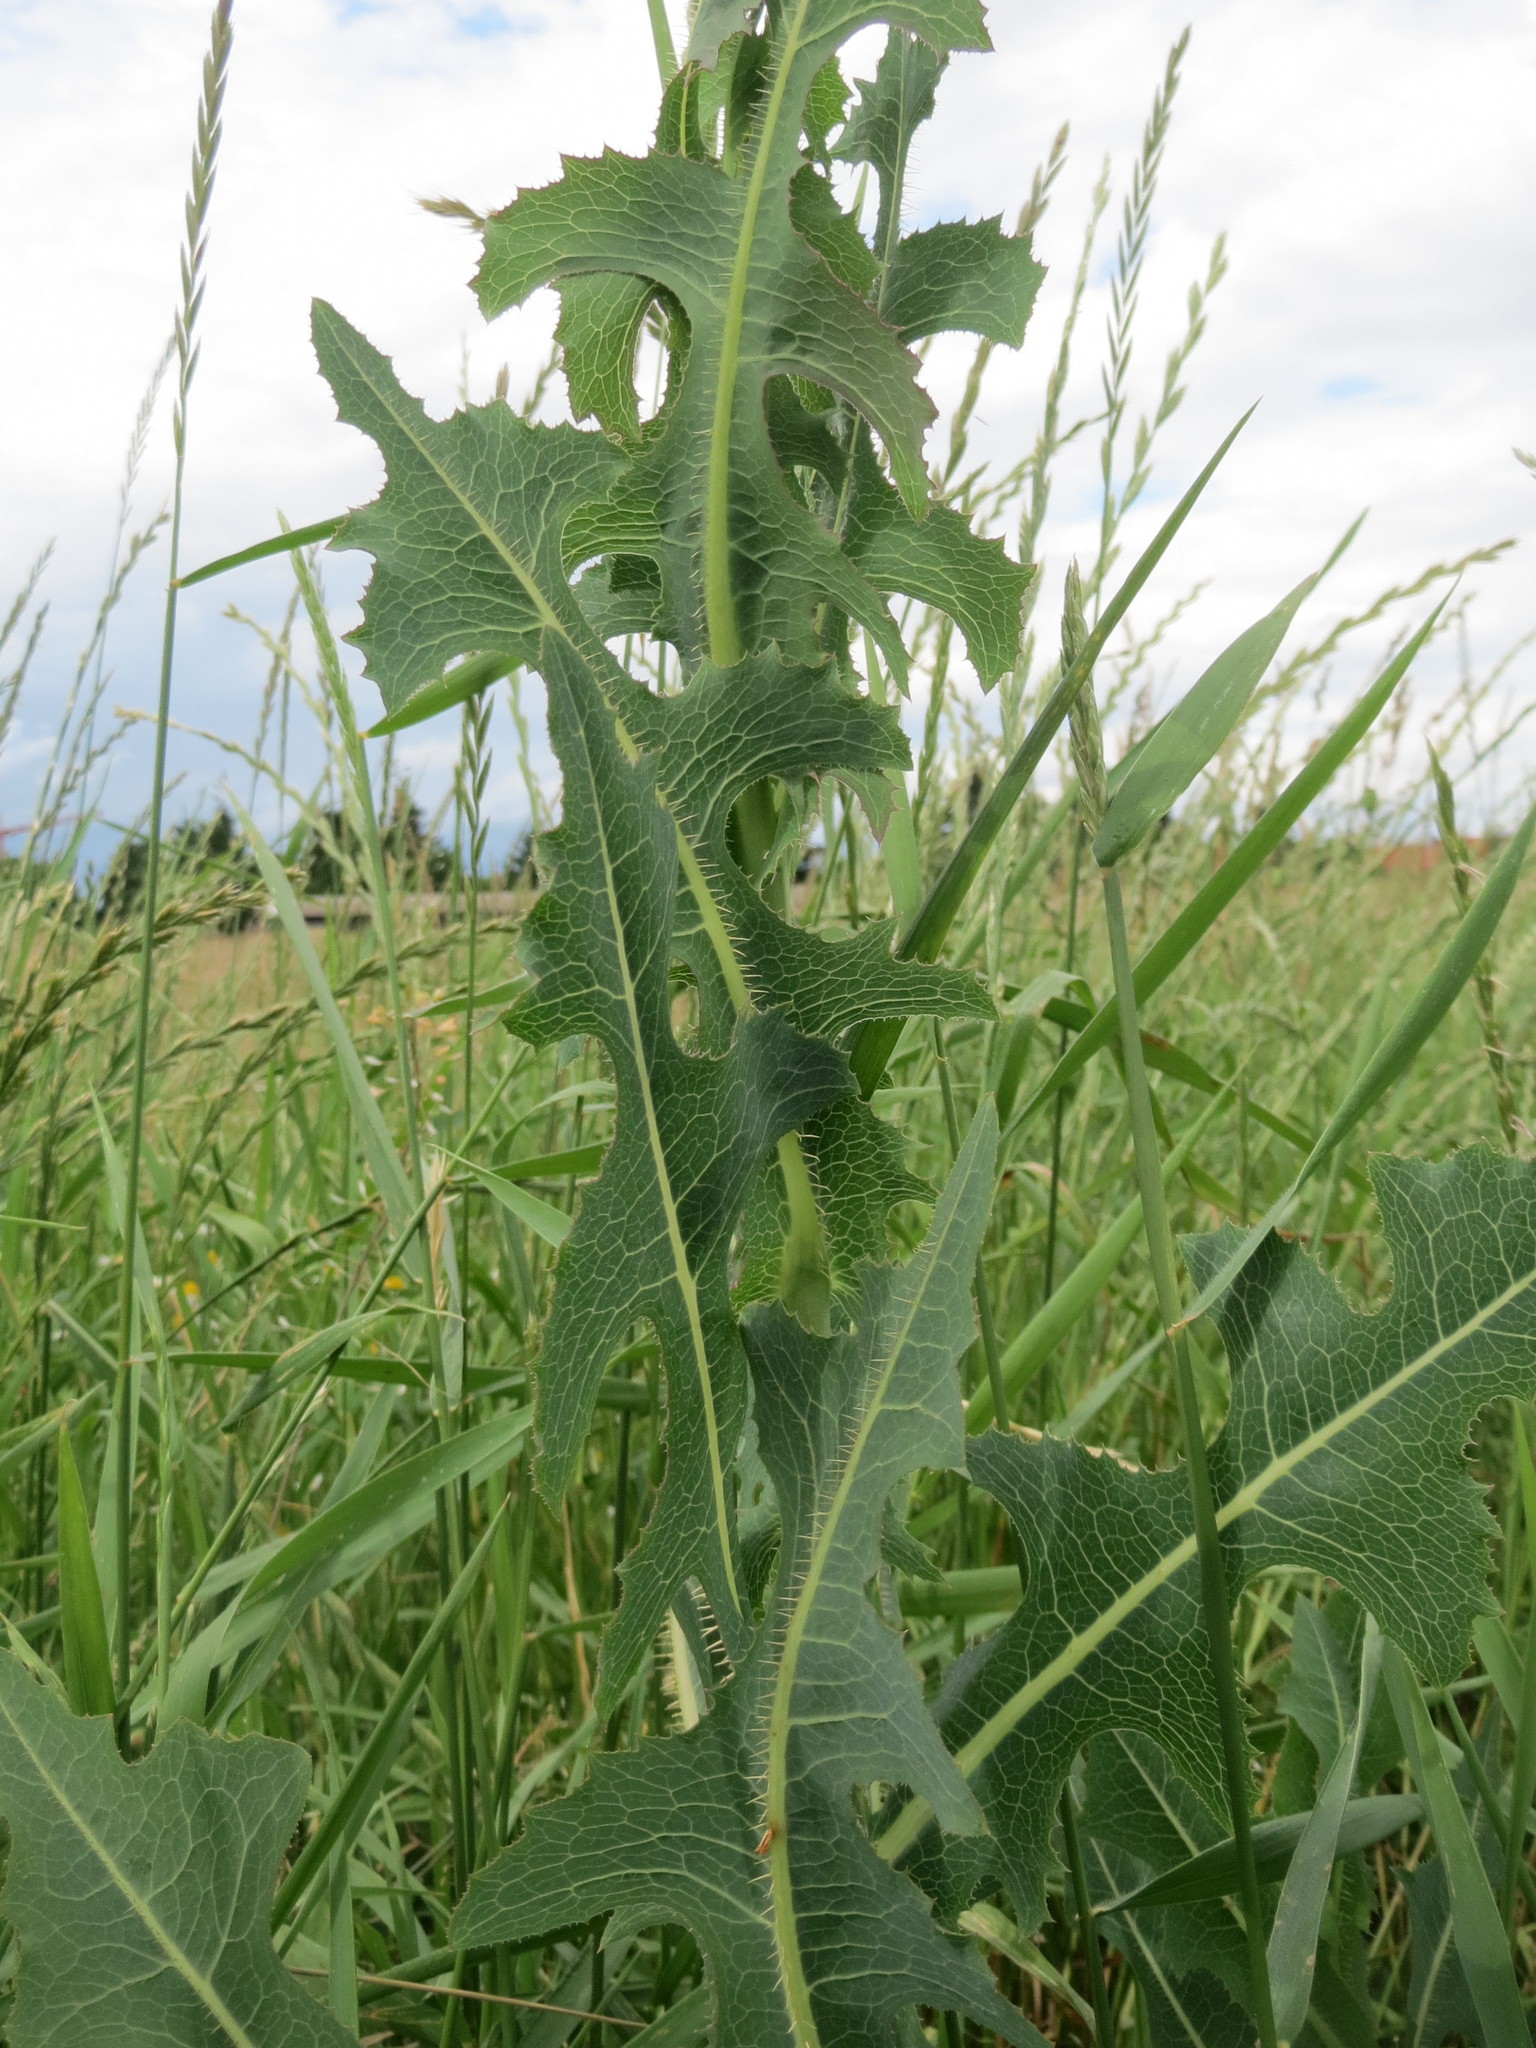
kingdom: Plantae
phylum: Tracheophyta
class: Magnoliopsida
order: Asterales
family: Asteraceae
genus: Lactuca
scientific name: Lactuca serriola
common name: Prickly lettuce
